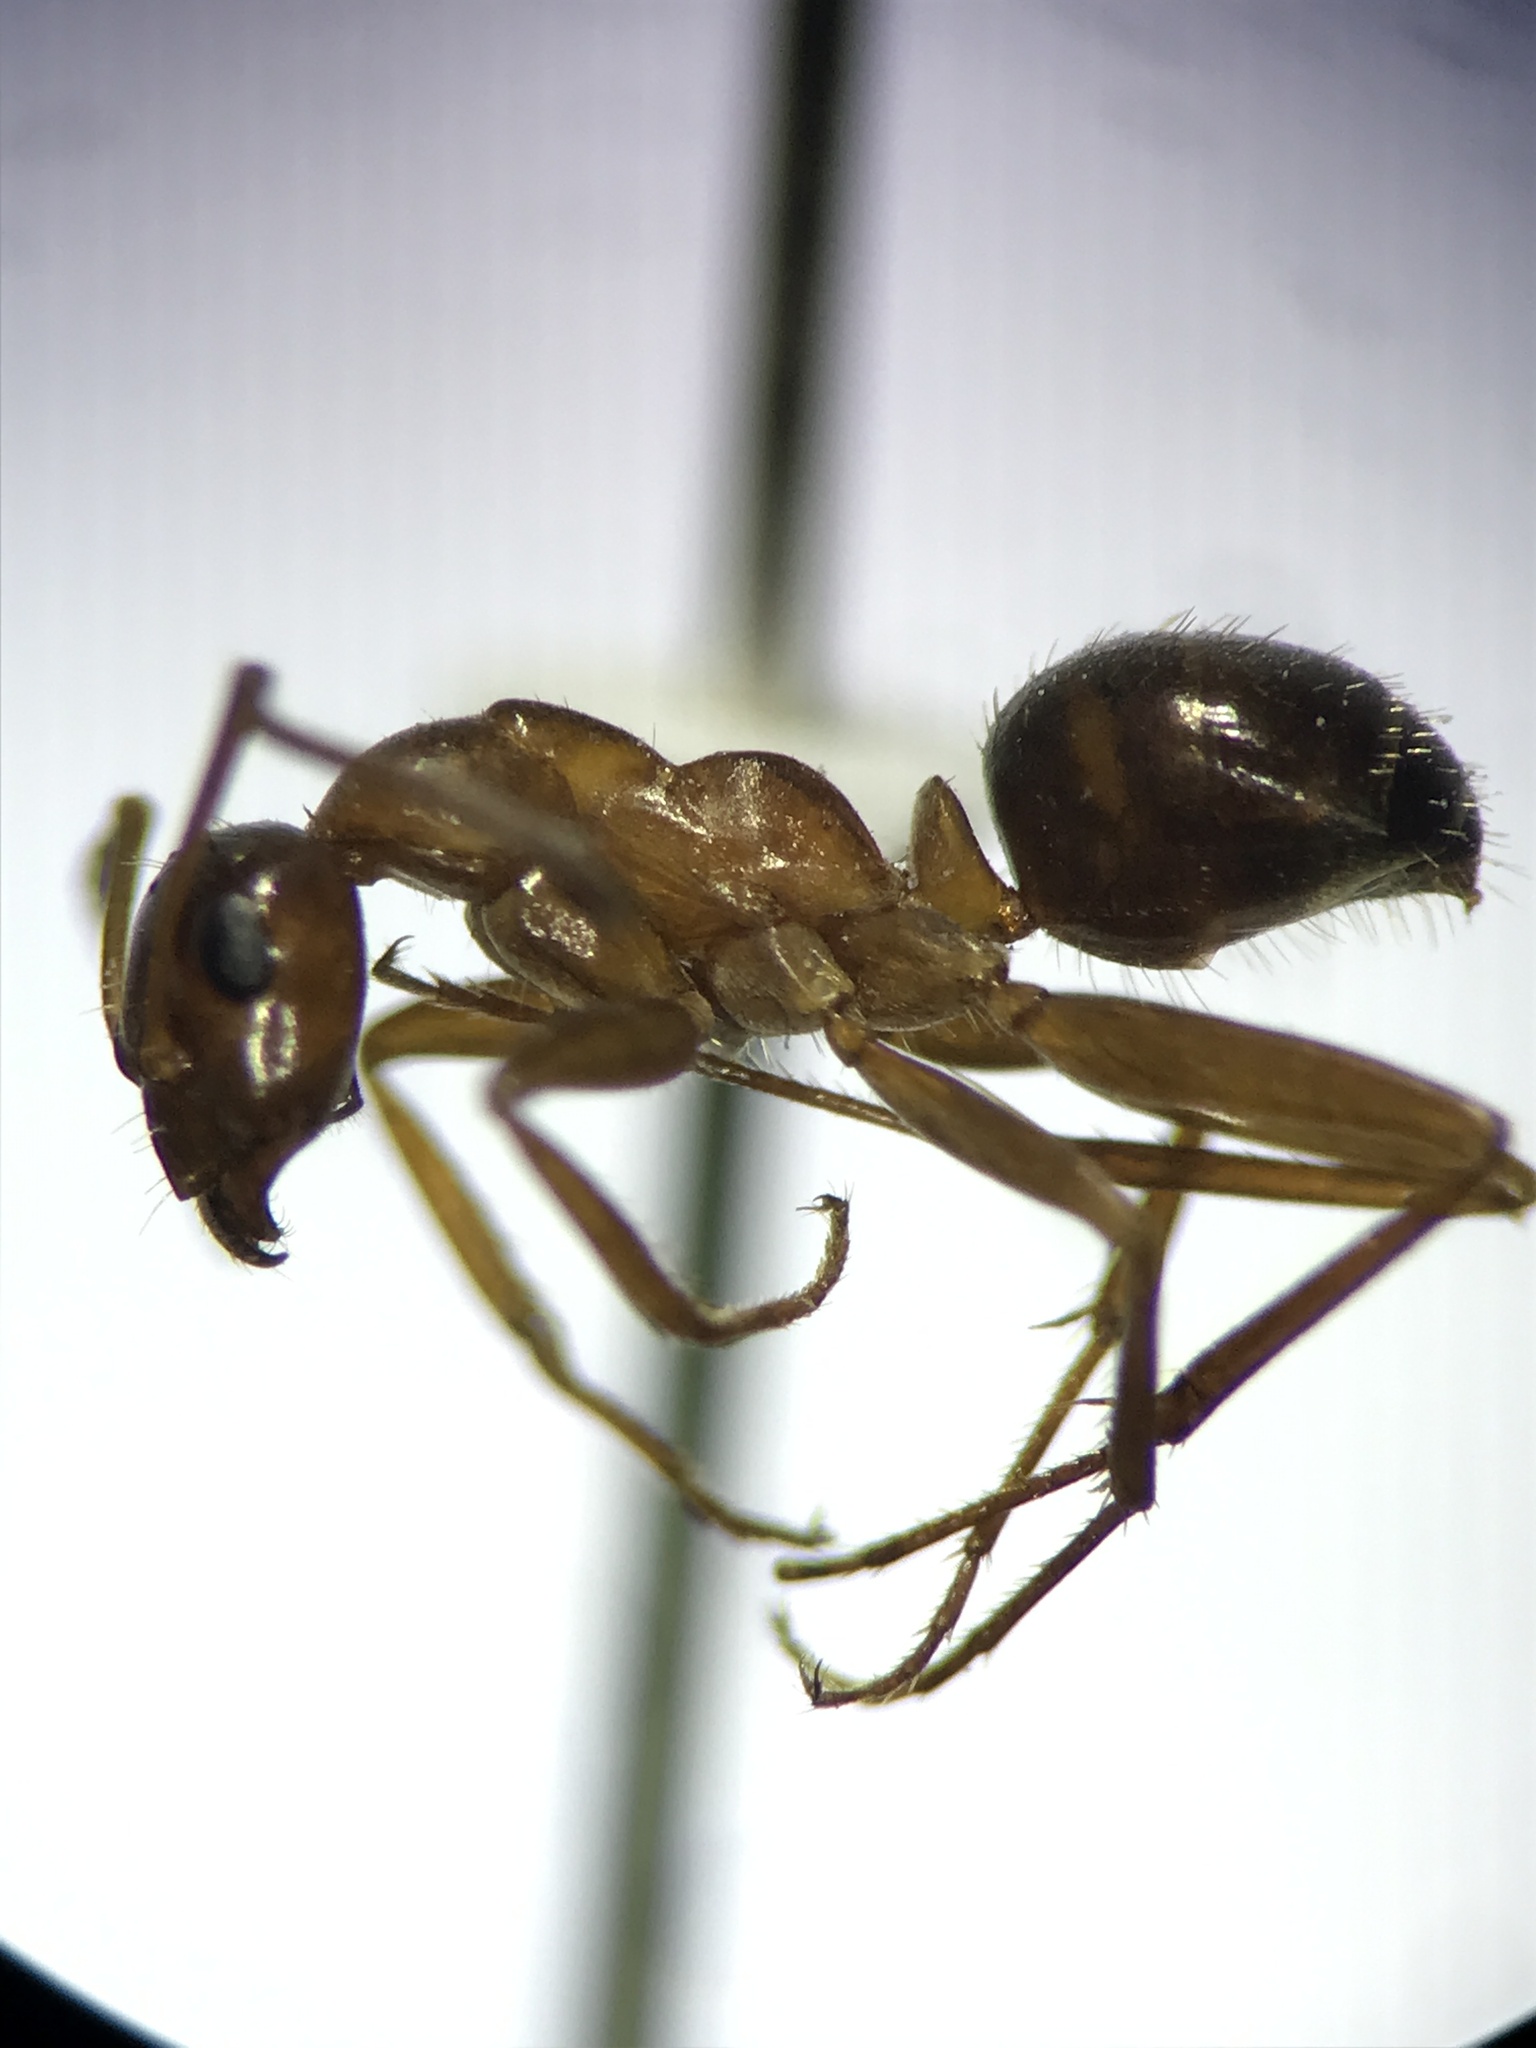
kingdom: Animalia
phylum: Arthropoda
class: Insecta
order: Hymenoptera
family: Formicidae
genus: Formica
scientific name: Formica incerta
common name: Uncertain field ant
